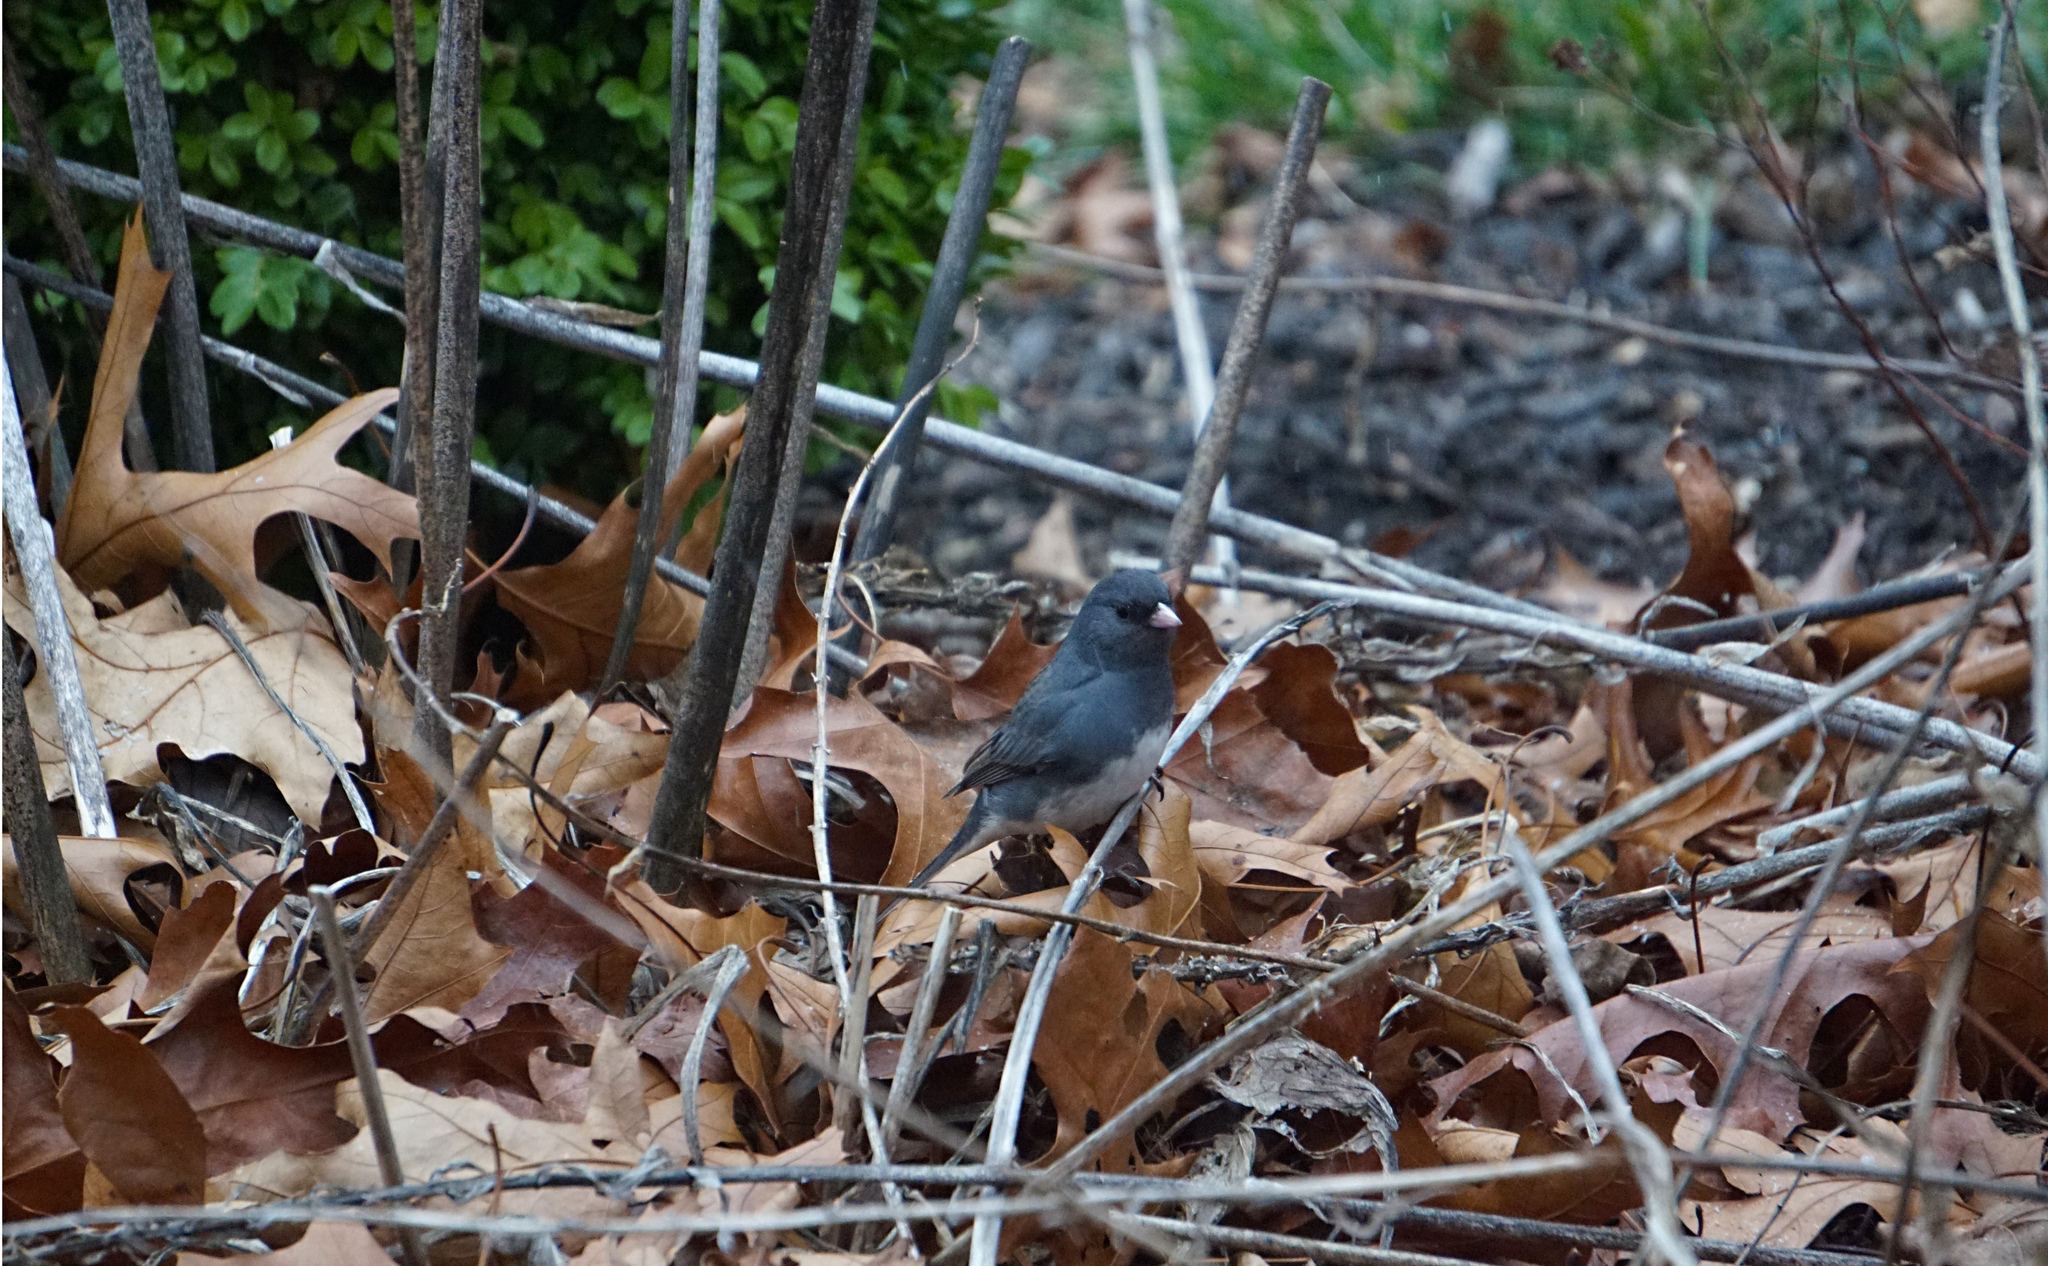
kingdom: Animalia
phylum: Chordata
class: Aves
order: Passeriformes
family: Passerellidae
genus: Junco
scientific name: Junco hyemalis
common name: Dark-eyed junco
